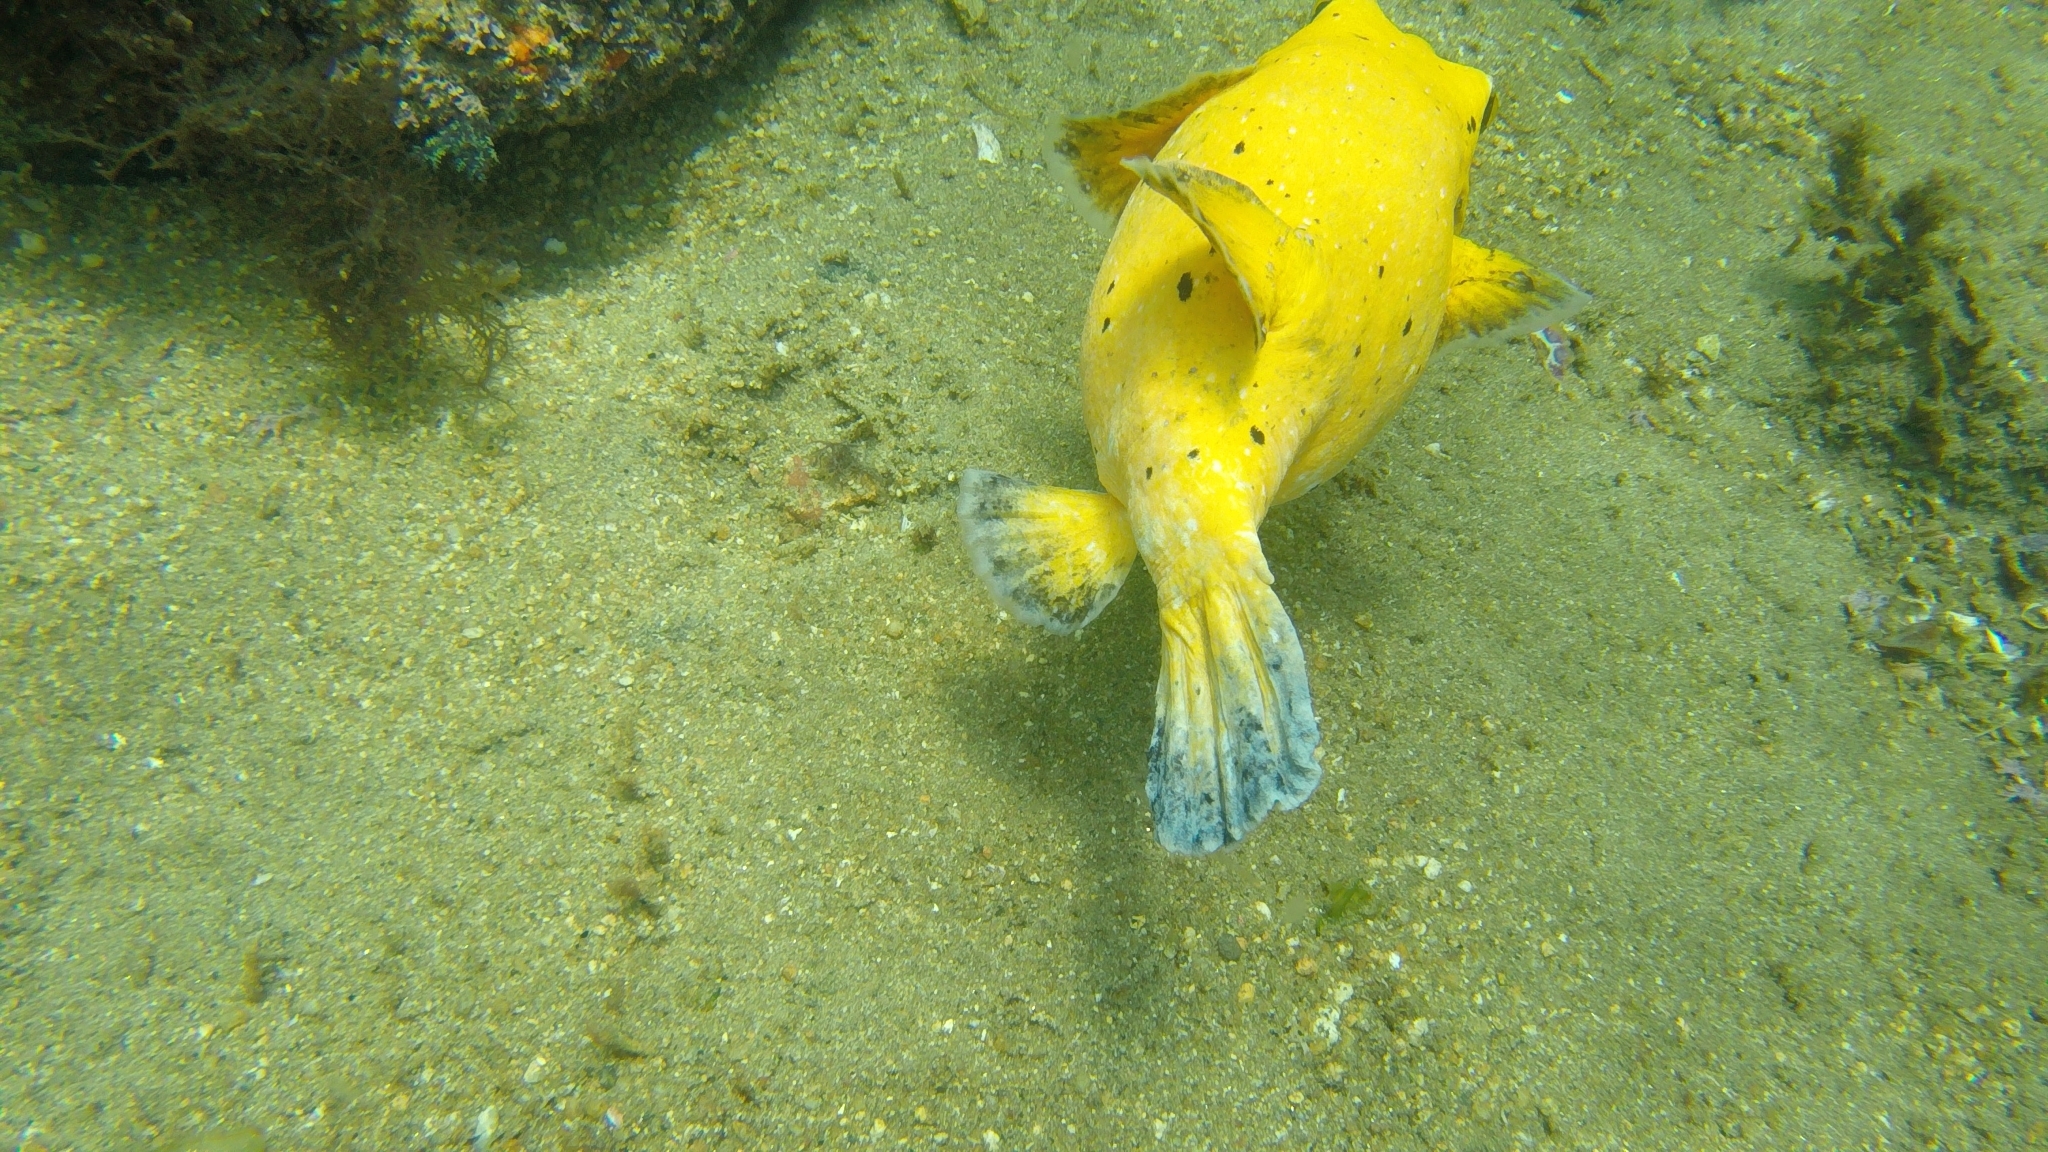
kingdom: Animalia
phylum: Chordata
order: Tetraodontiformes
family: Tetraodontidae
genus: Arothron
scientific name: Arothron meleagris
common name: Guinea-fowl pufferfish
